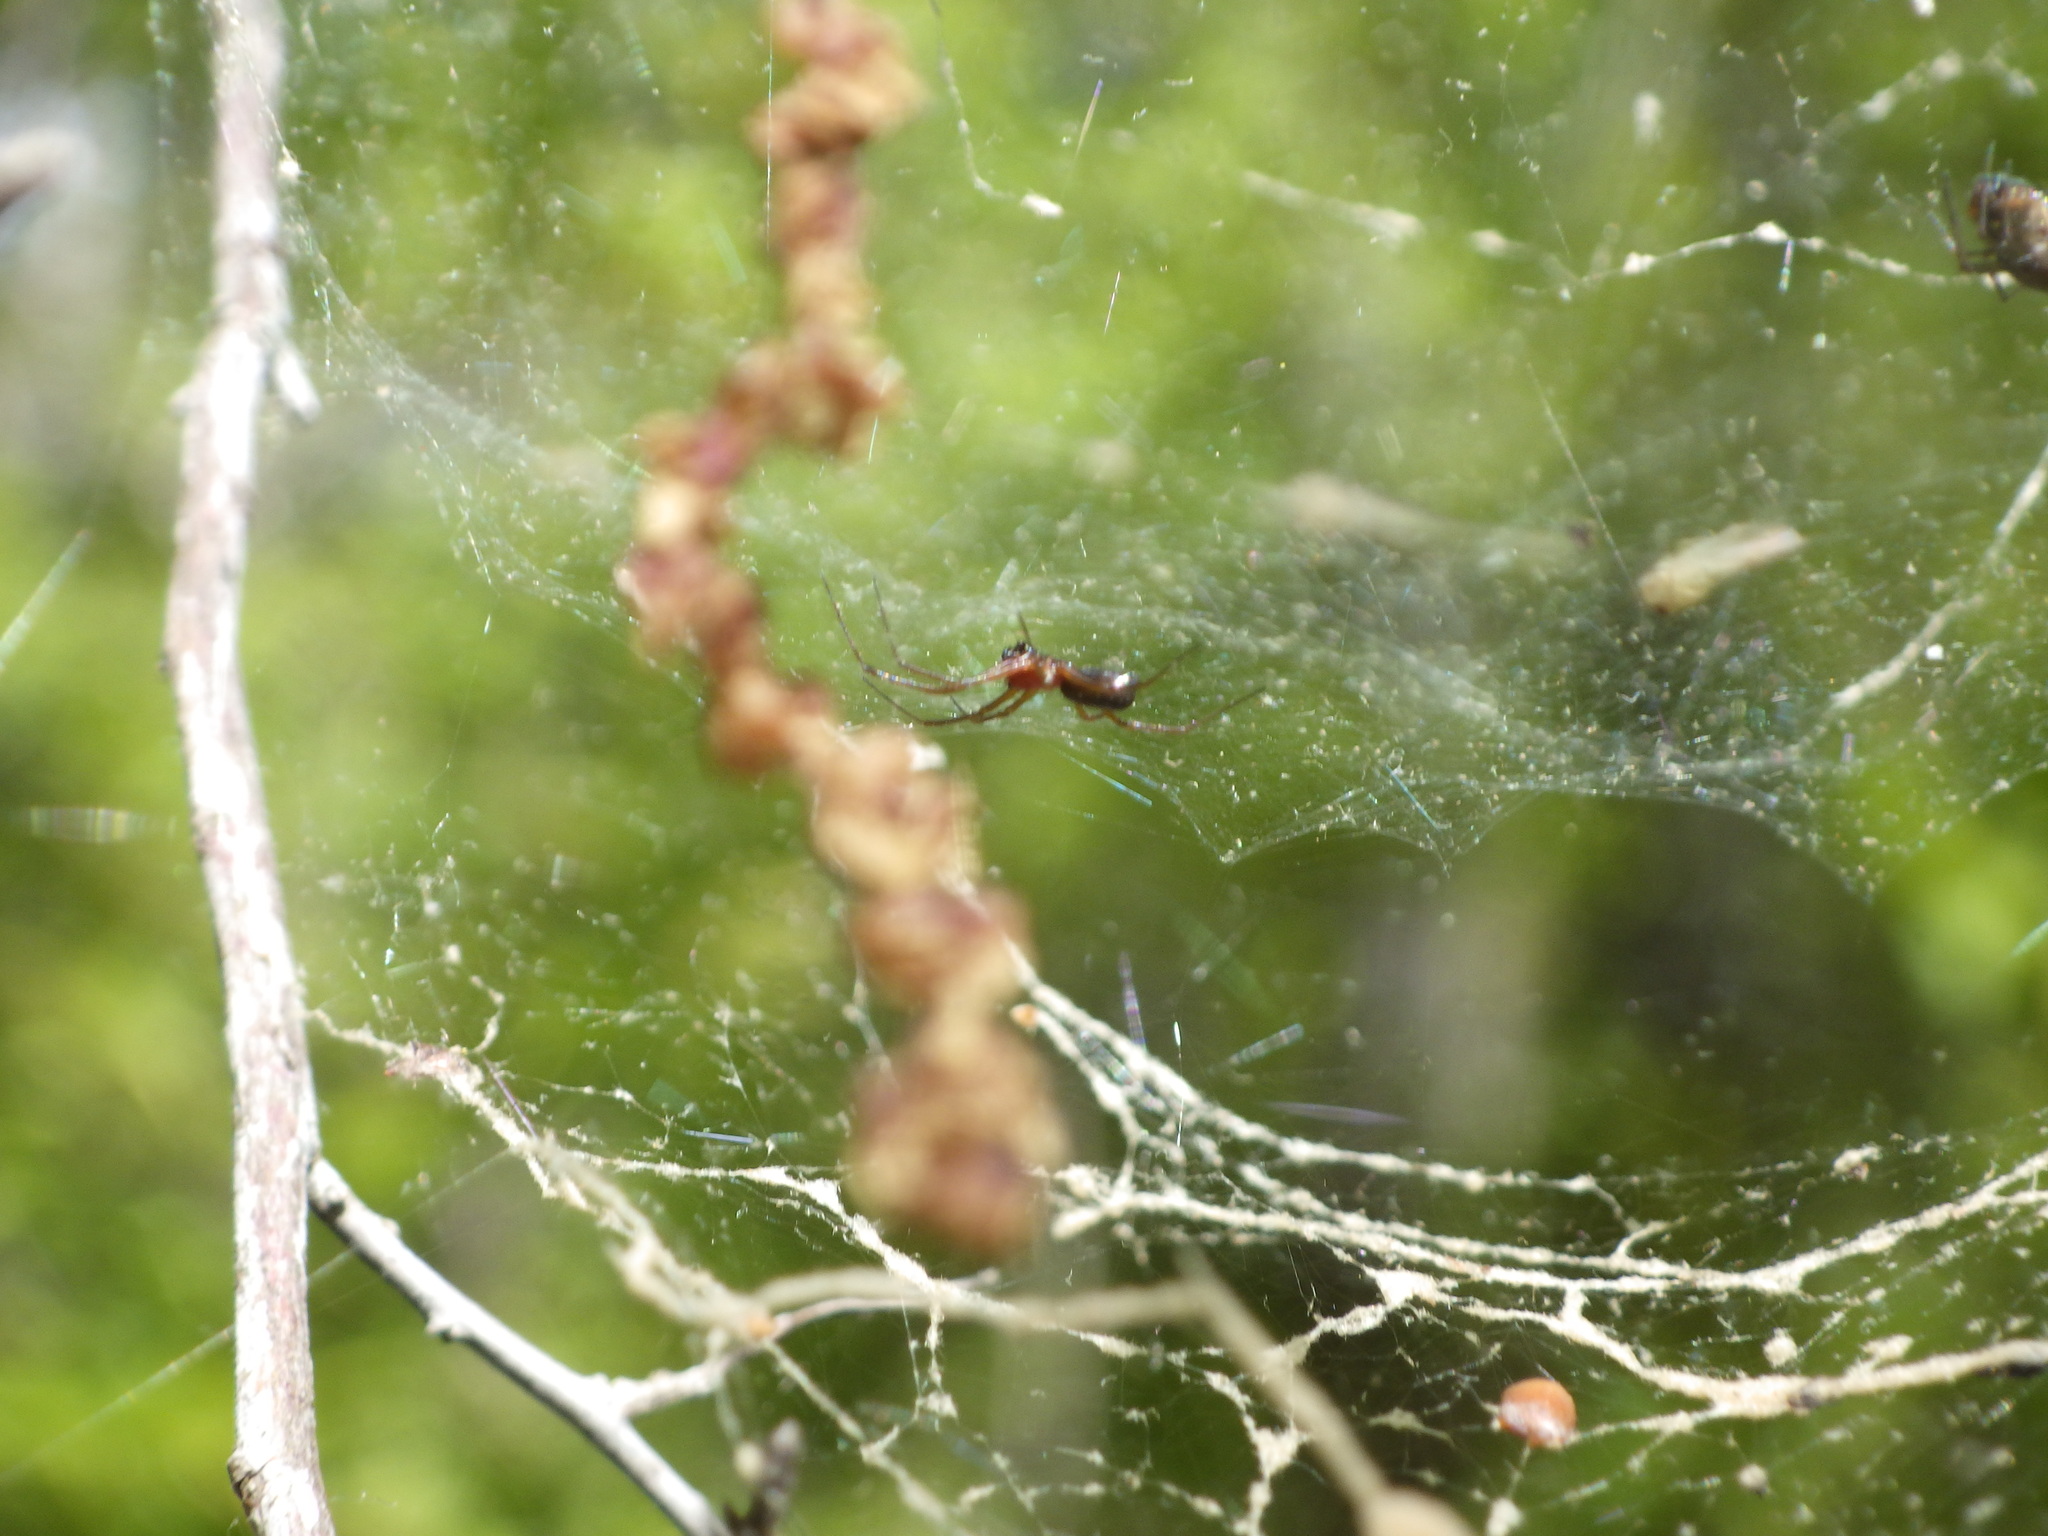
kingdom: Animalia
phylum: Arthropoda
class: Arachnida
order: Araneae
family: Linyphiidae
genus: Frontinella
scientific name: Frontinella pyramitela
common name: Bowl-and-doily spider
